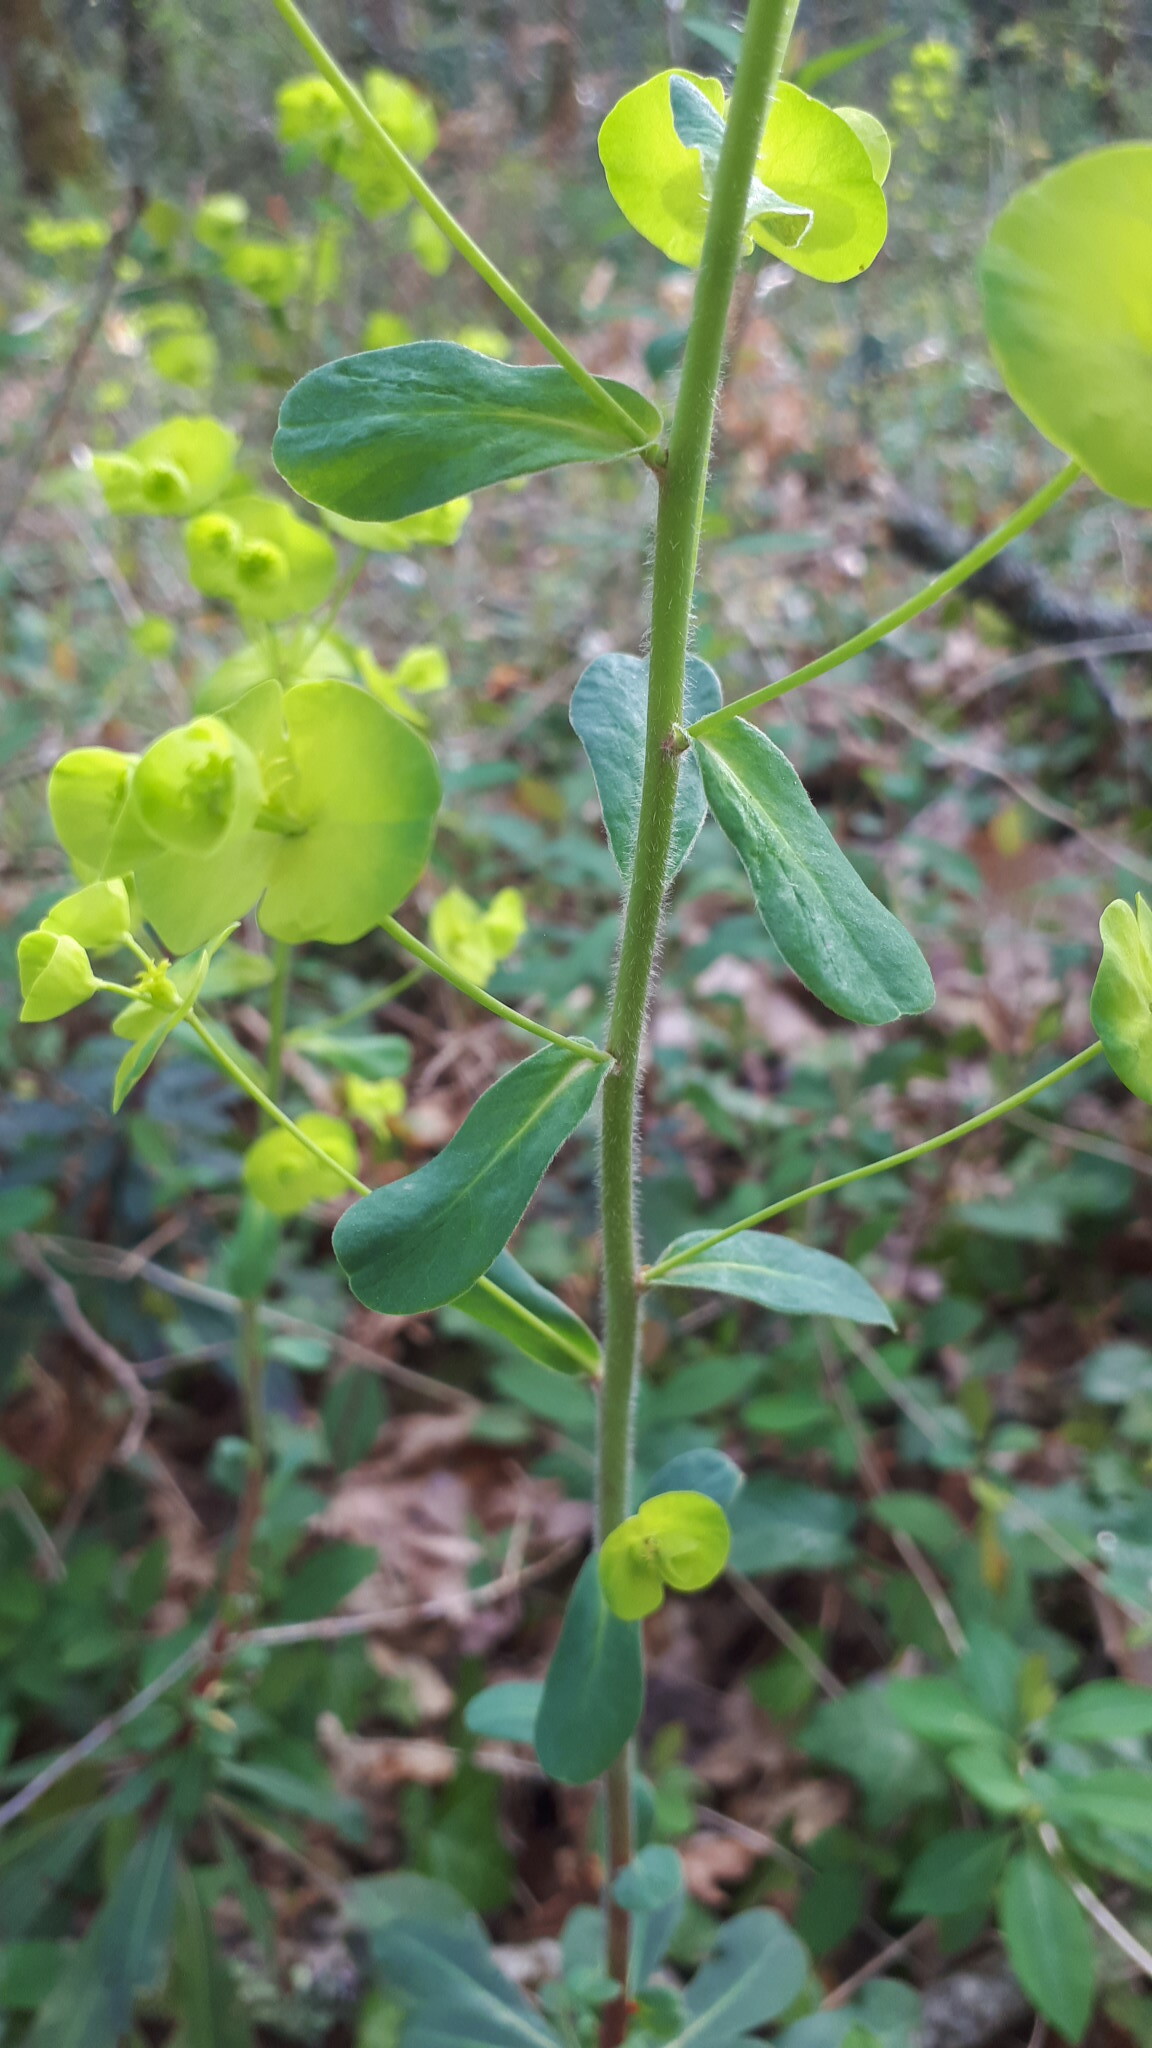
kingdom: Plantae
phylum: Tracheophyta
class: Magnoliopsida
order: Malpighiales
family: Euphorbiaceae
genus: Euphorbia
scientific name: Euphorbia amygdaloides
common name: Wood spurge
